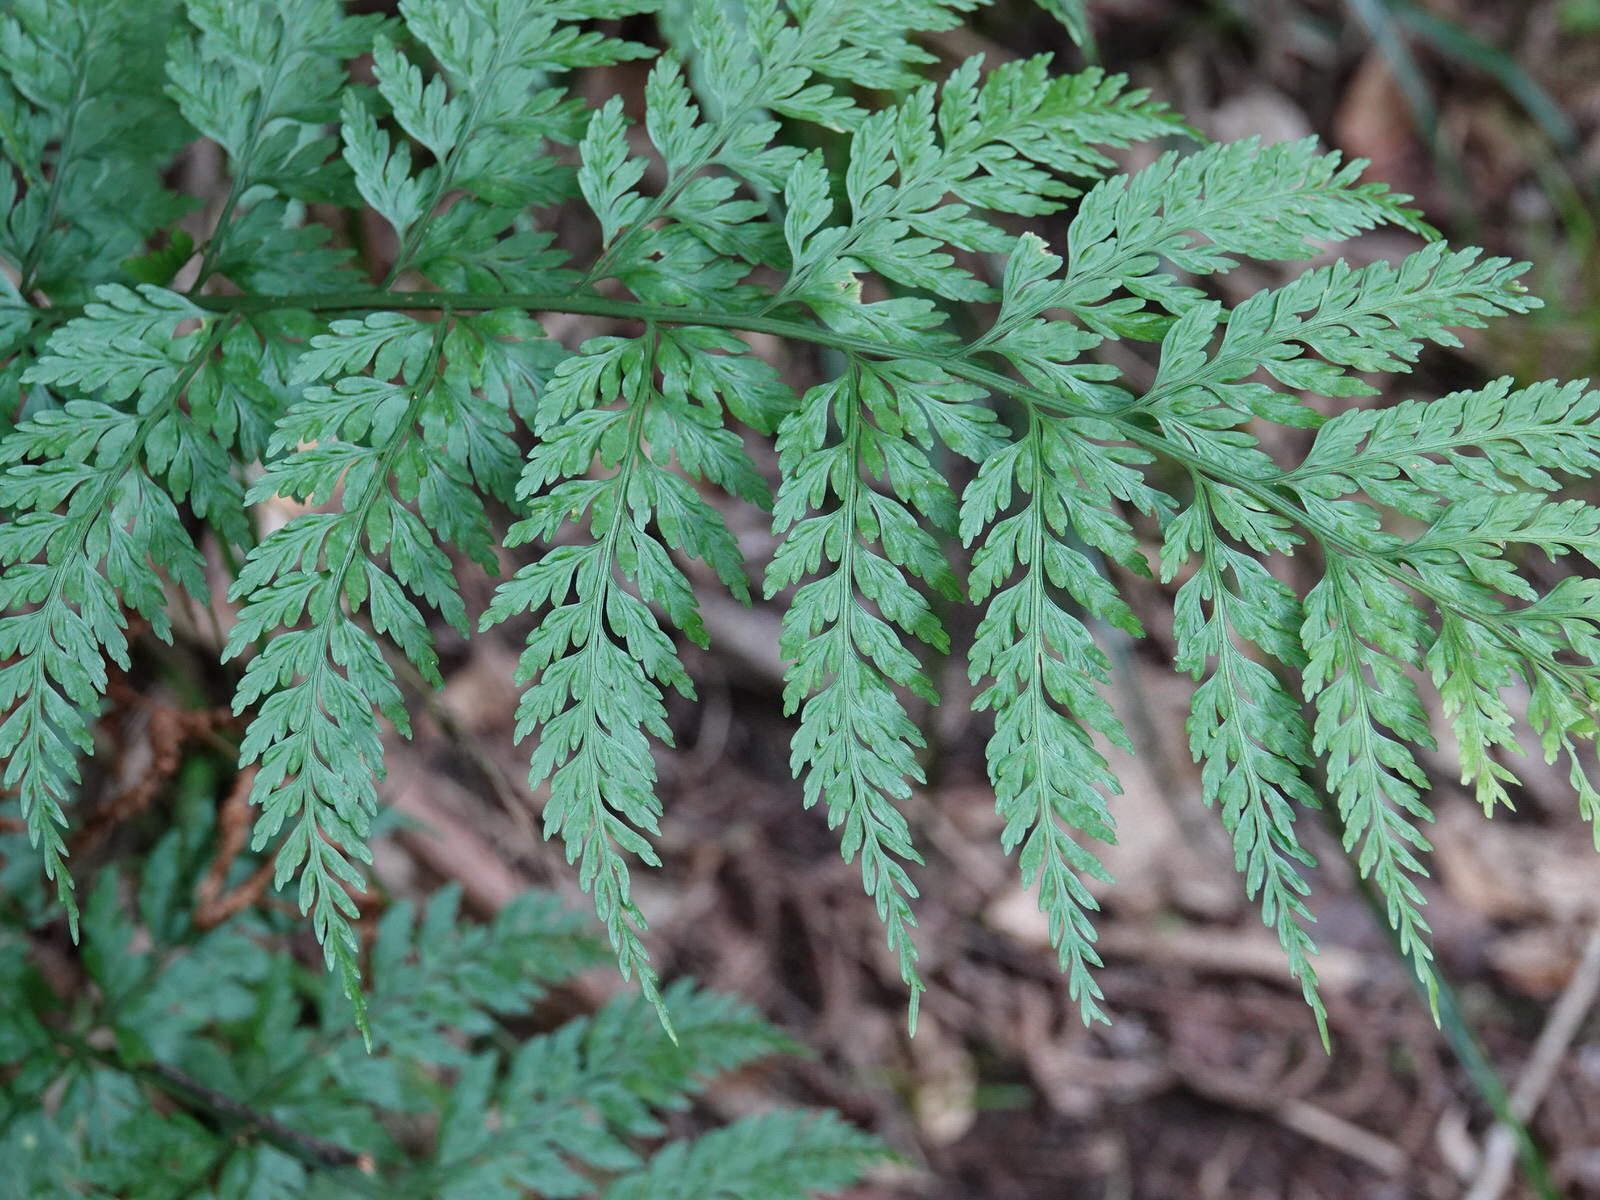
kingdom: Plantae
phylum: Tracheophyta
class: Polypodiopsida
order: Polypodiales
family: Aspleniaceae
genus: Asplenium
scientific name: Asplenium
